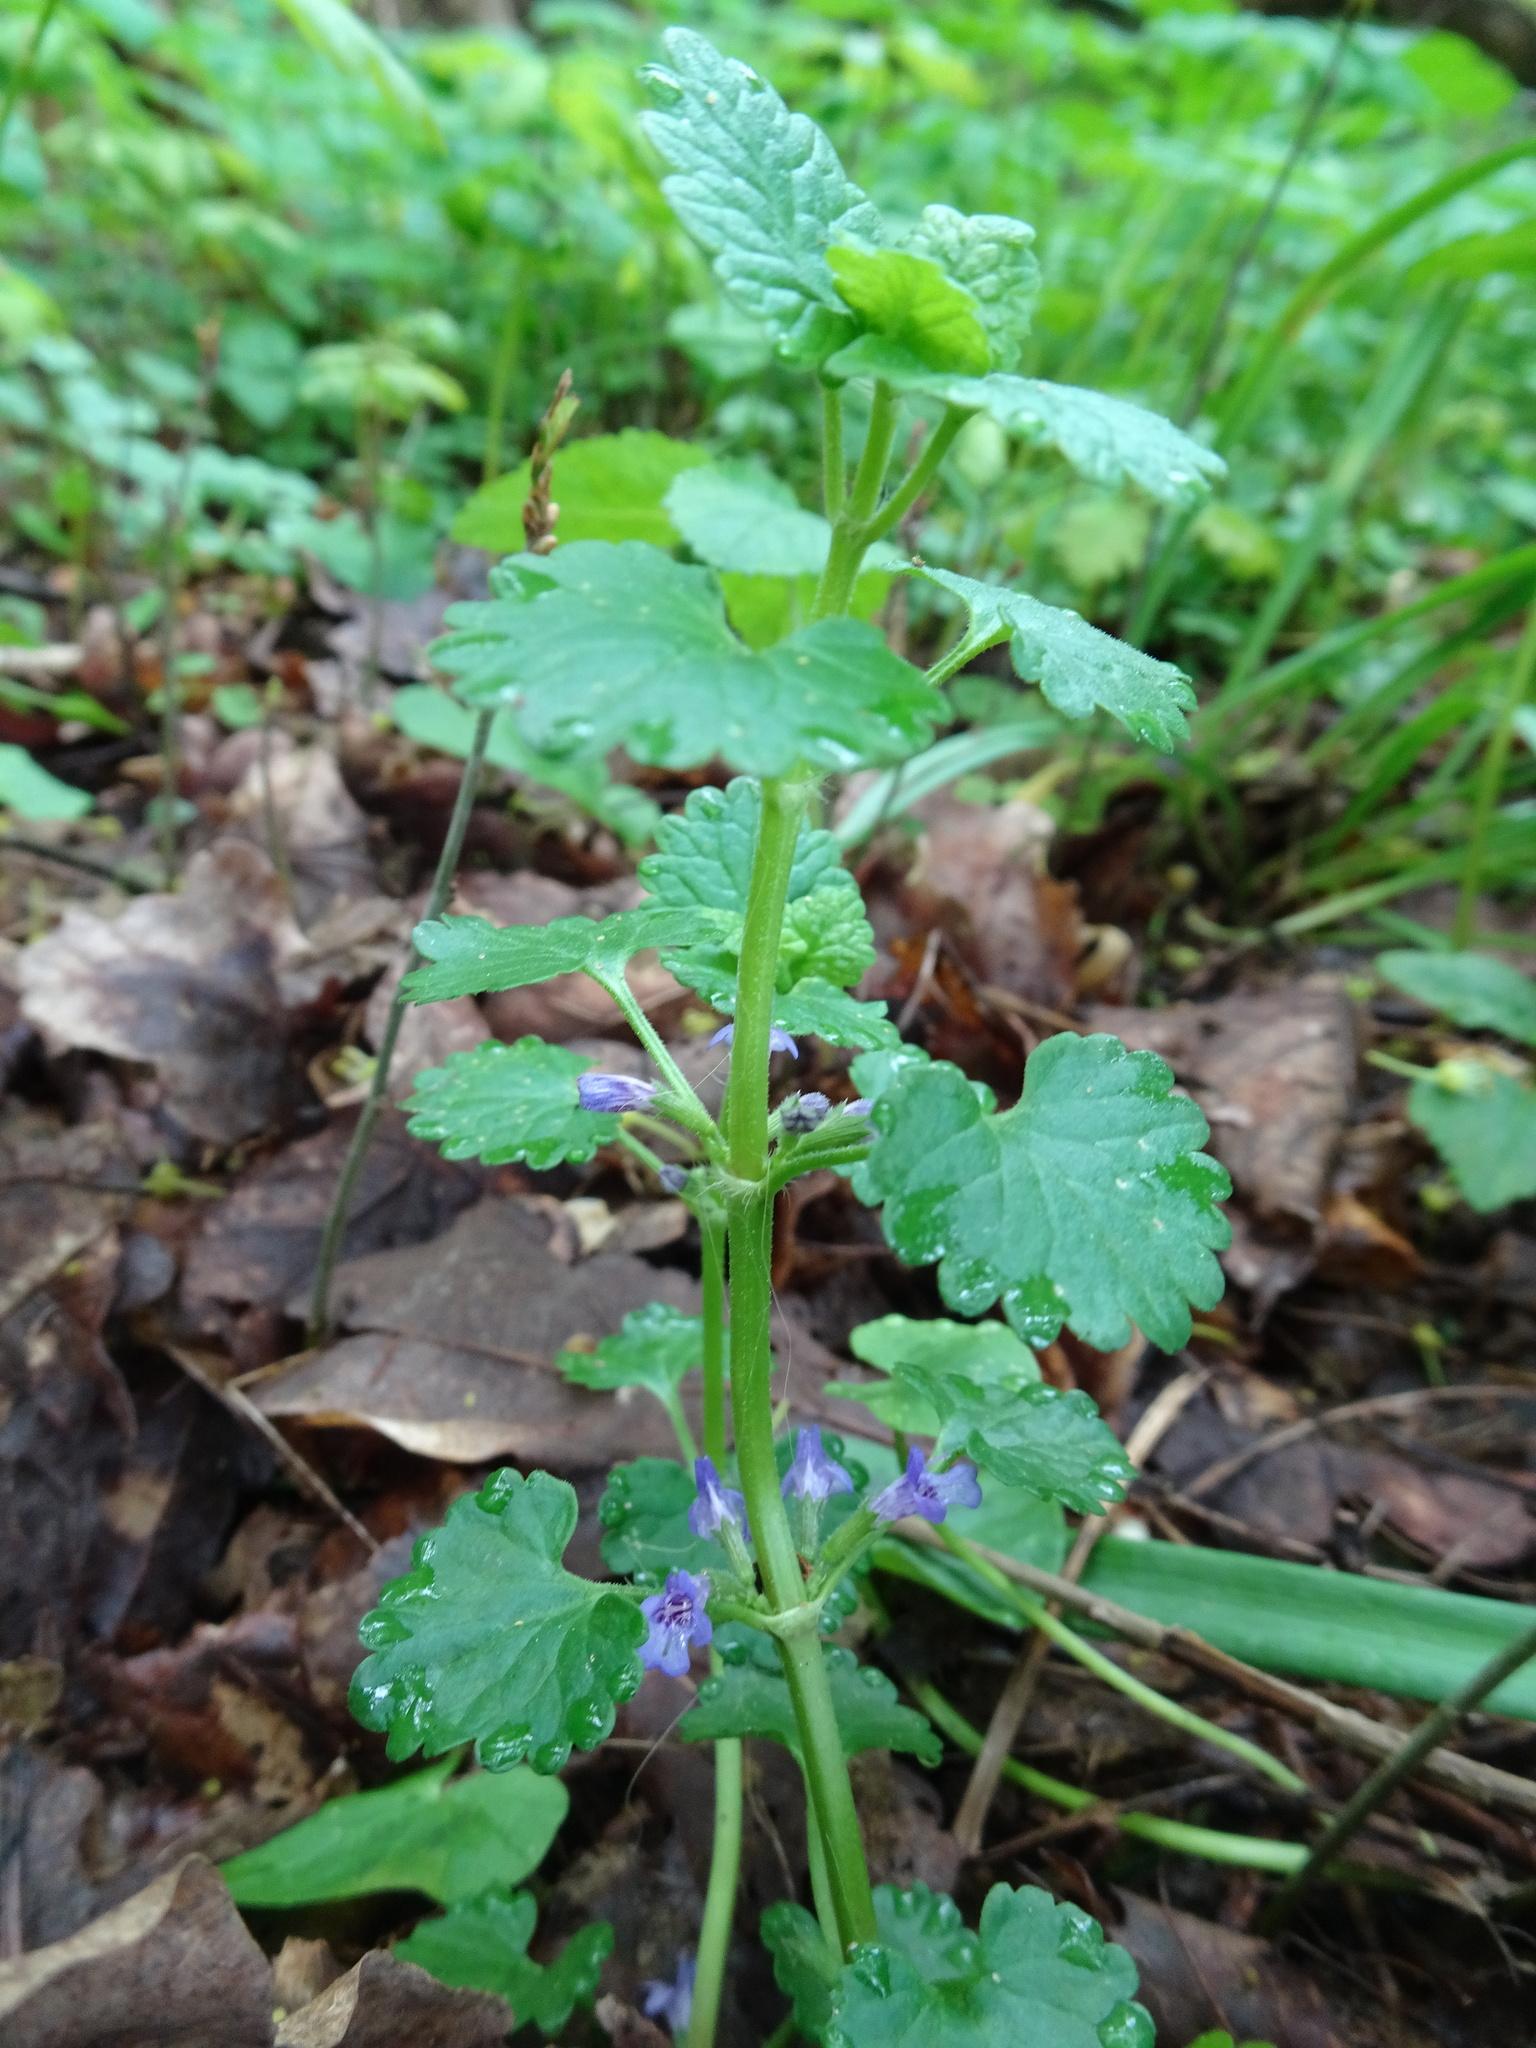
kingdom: Plantae
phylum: Tracheophyta
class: Magnoliopsida
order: Lamiales
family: Lamiaceae
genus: Glechoma
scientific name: Glechoma hederacea
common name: Ground ivy
